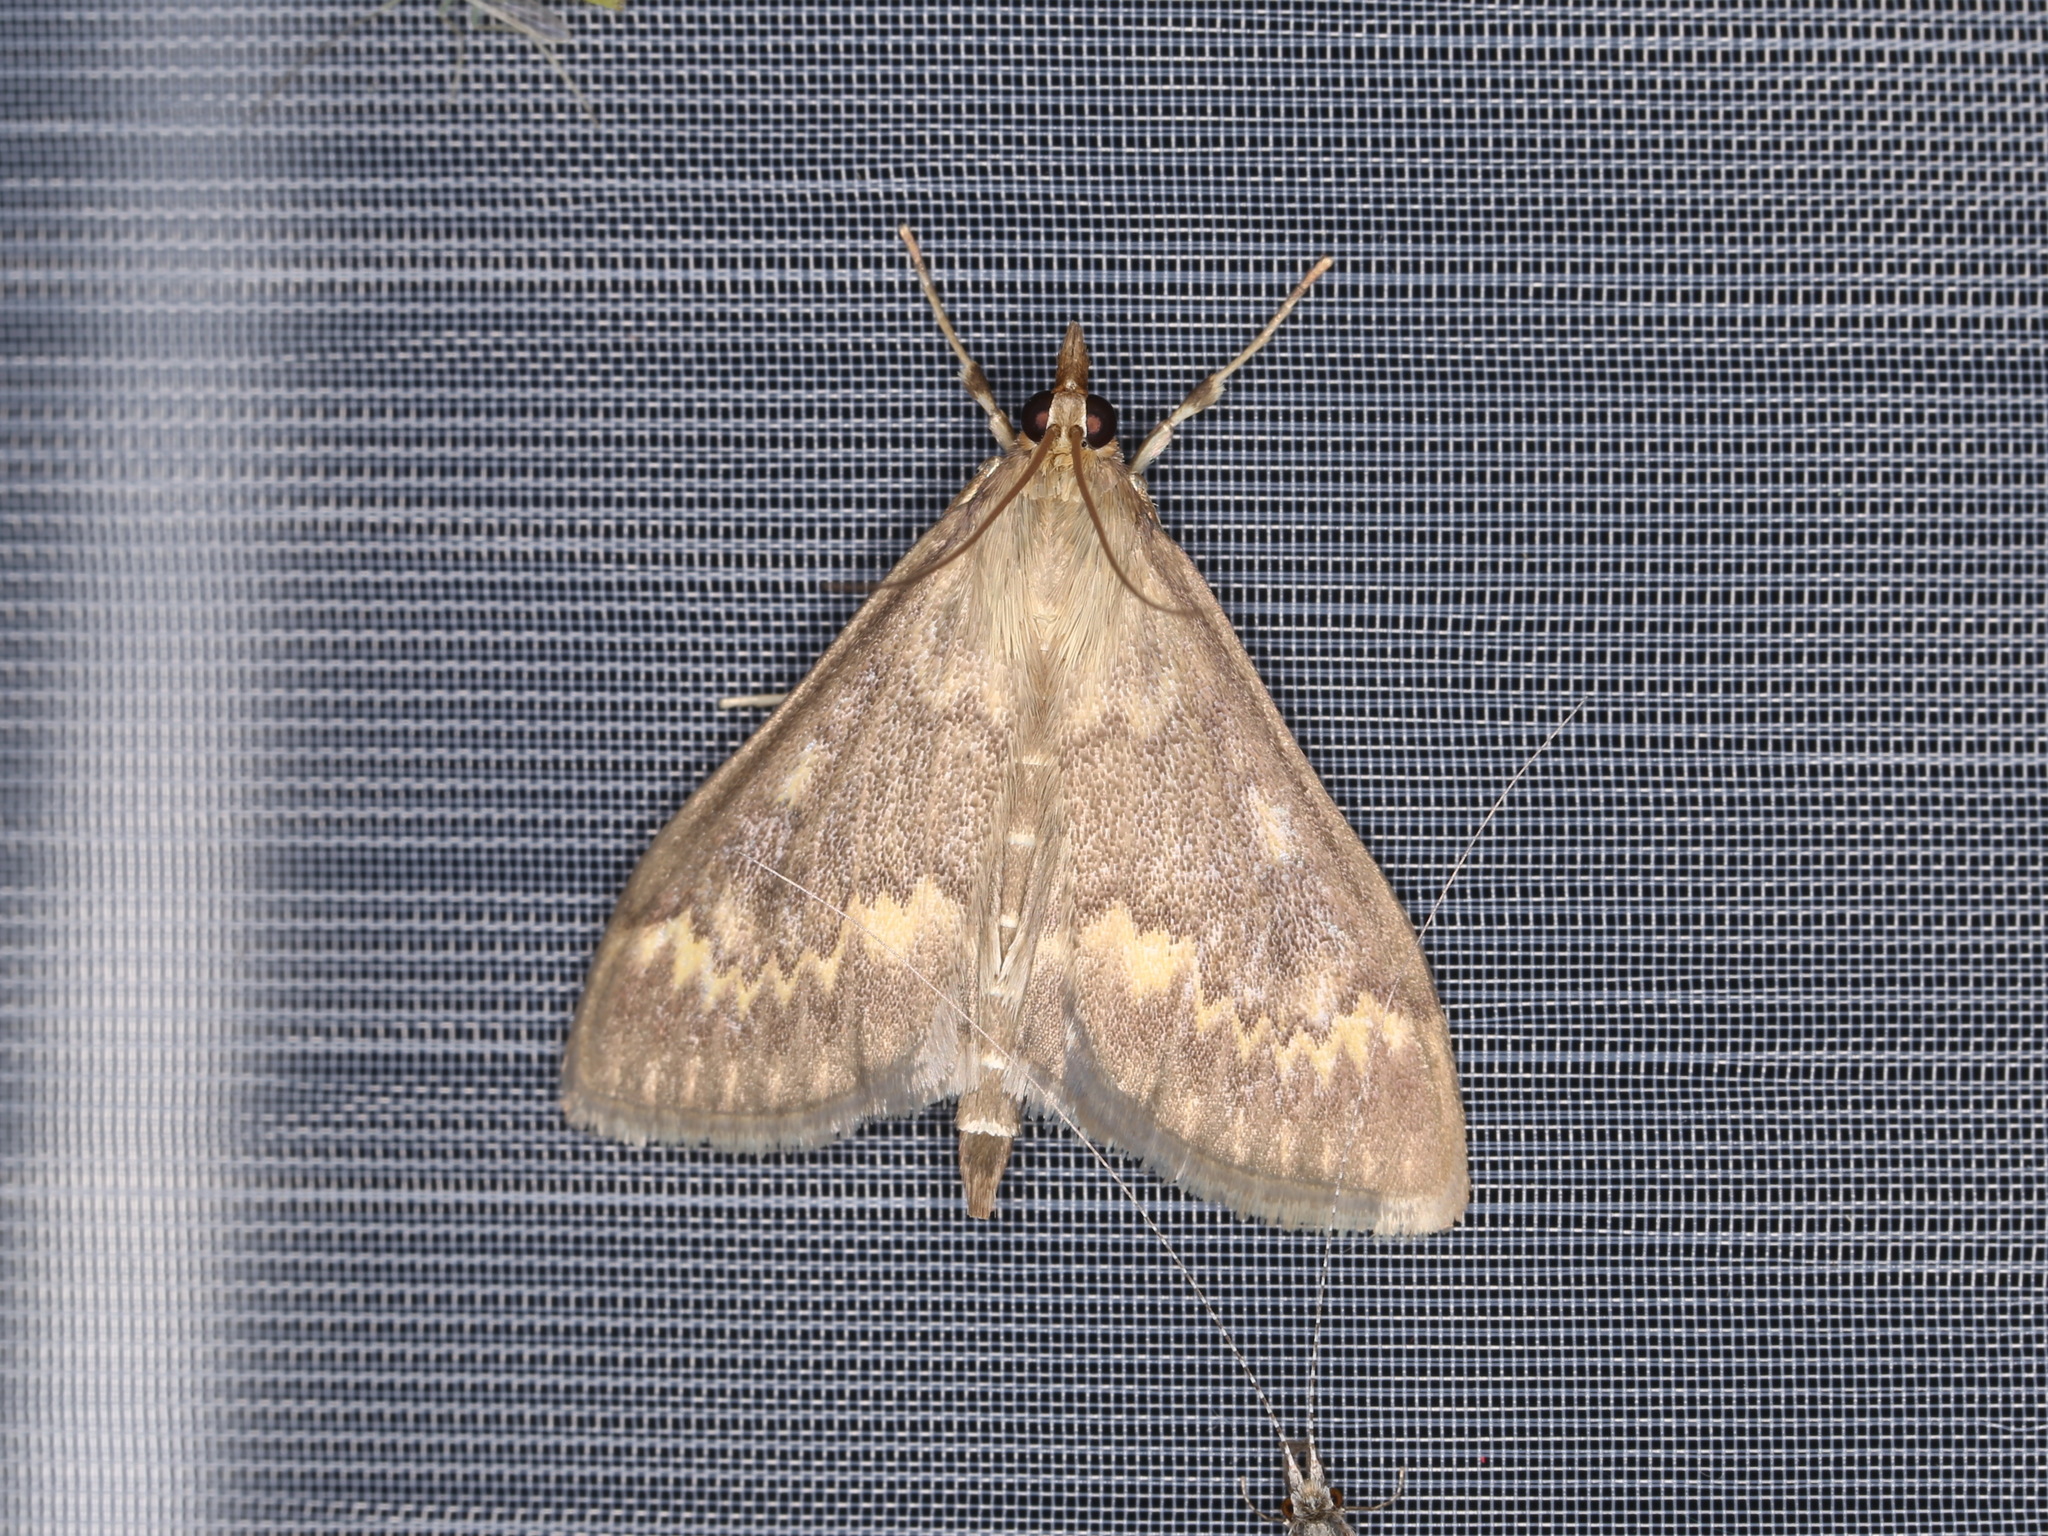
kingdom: Animalia
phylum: Arthropoda
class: Insecta
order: Lepidoptera
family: Crambidae
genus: Ostrinia
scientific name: Ostrinia nubilalis
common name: European corn borer
